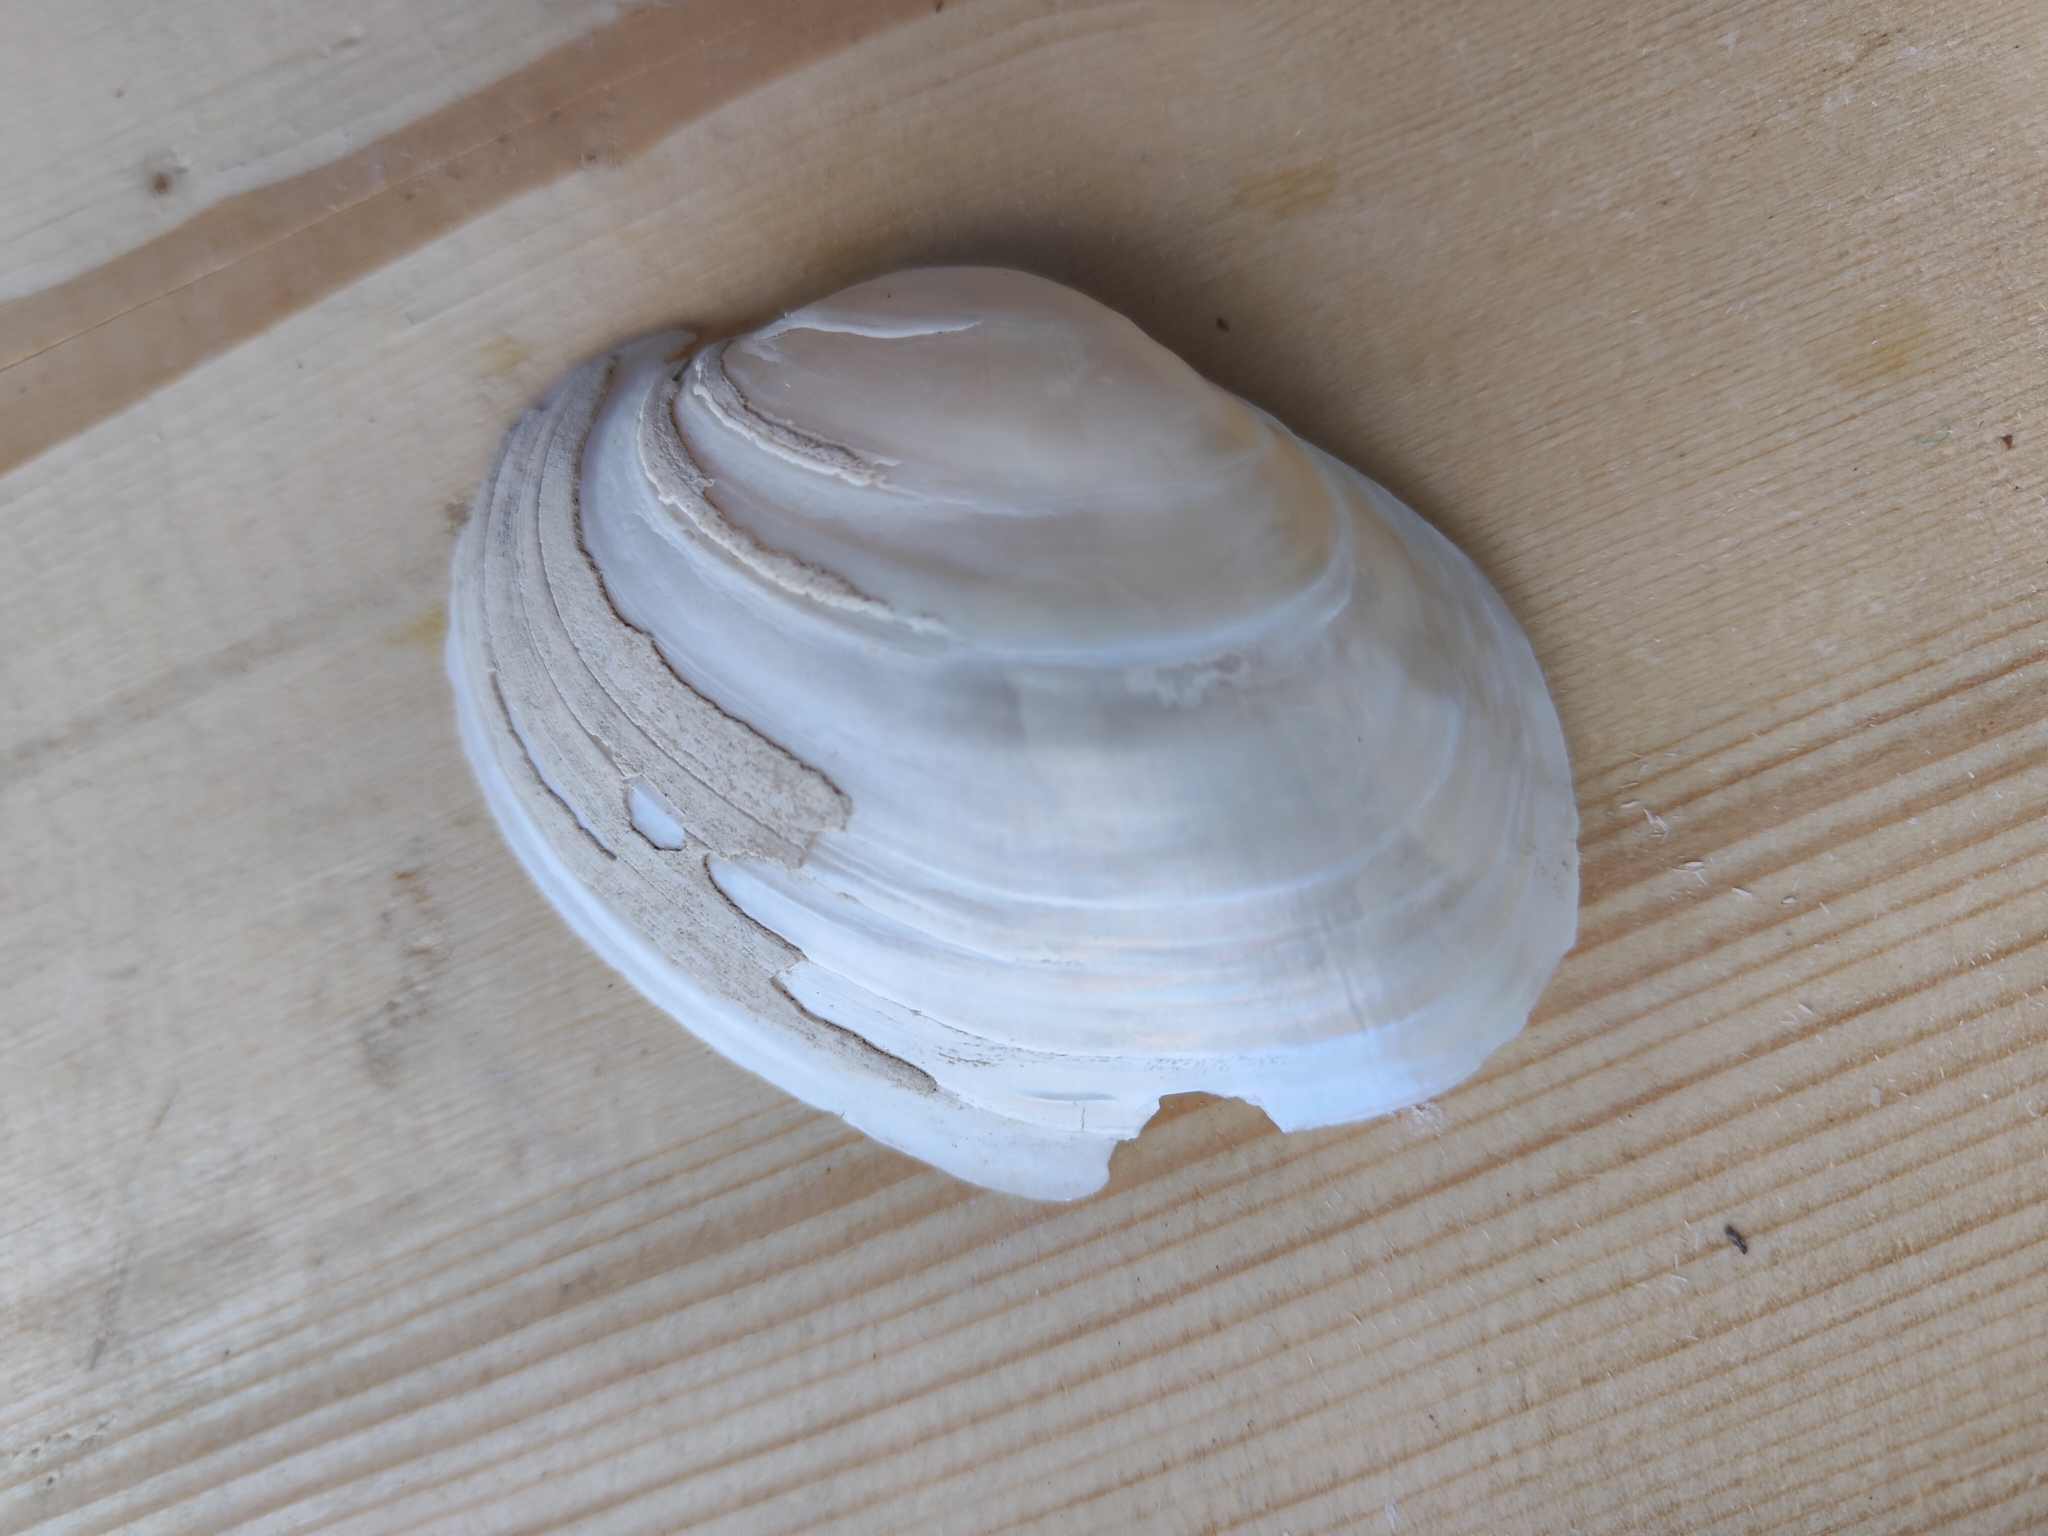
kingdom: Animalia
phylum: Mollusca
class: Bivalvia
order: Unionida
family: Unionidae
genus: Lampsilis
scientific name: Lampsilis cardium
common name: Plain pocketbook
